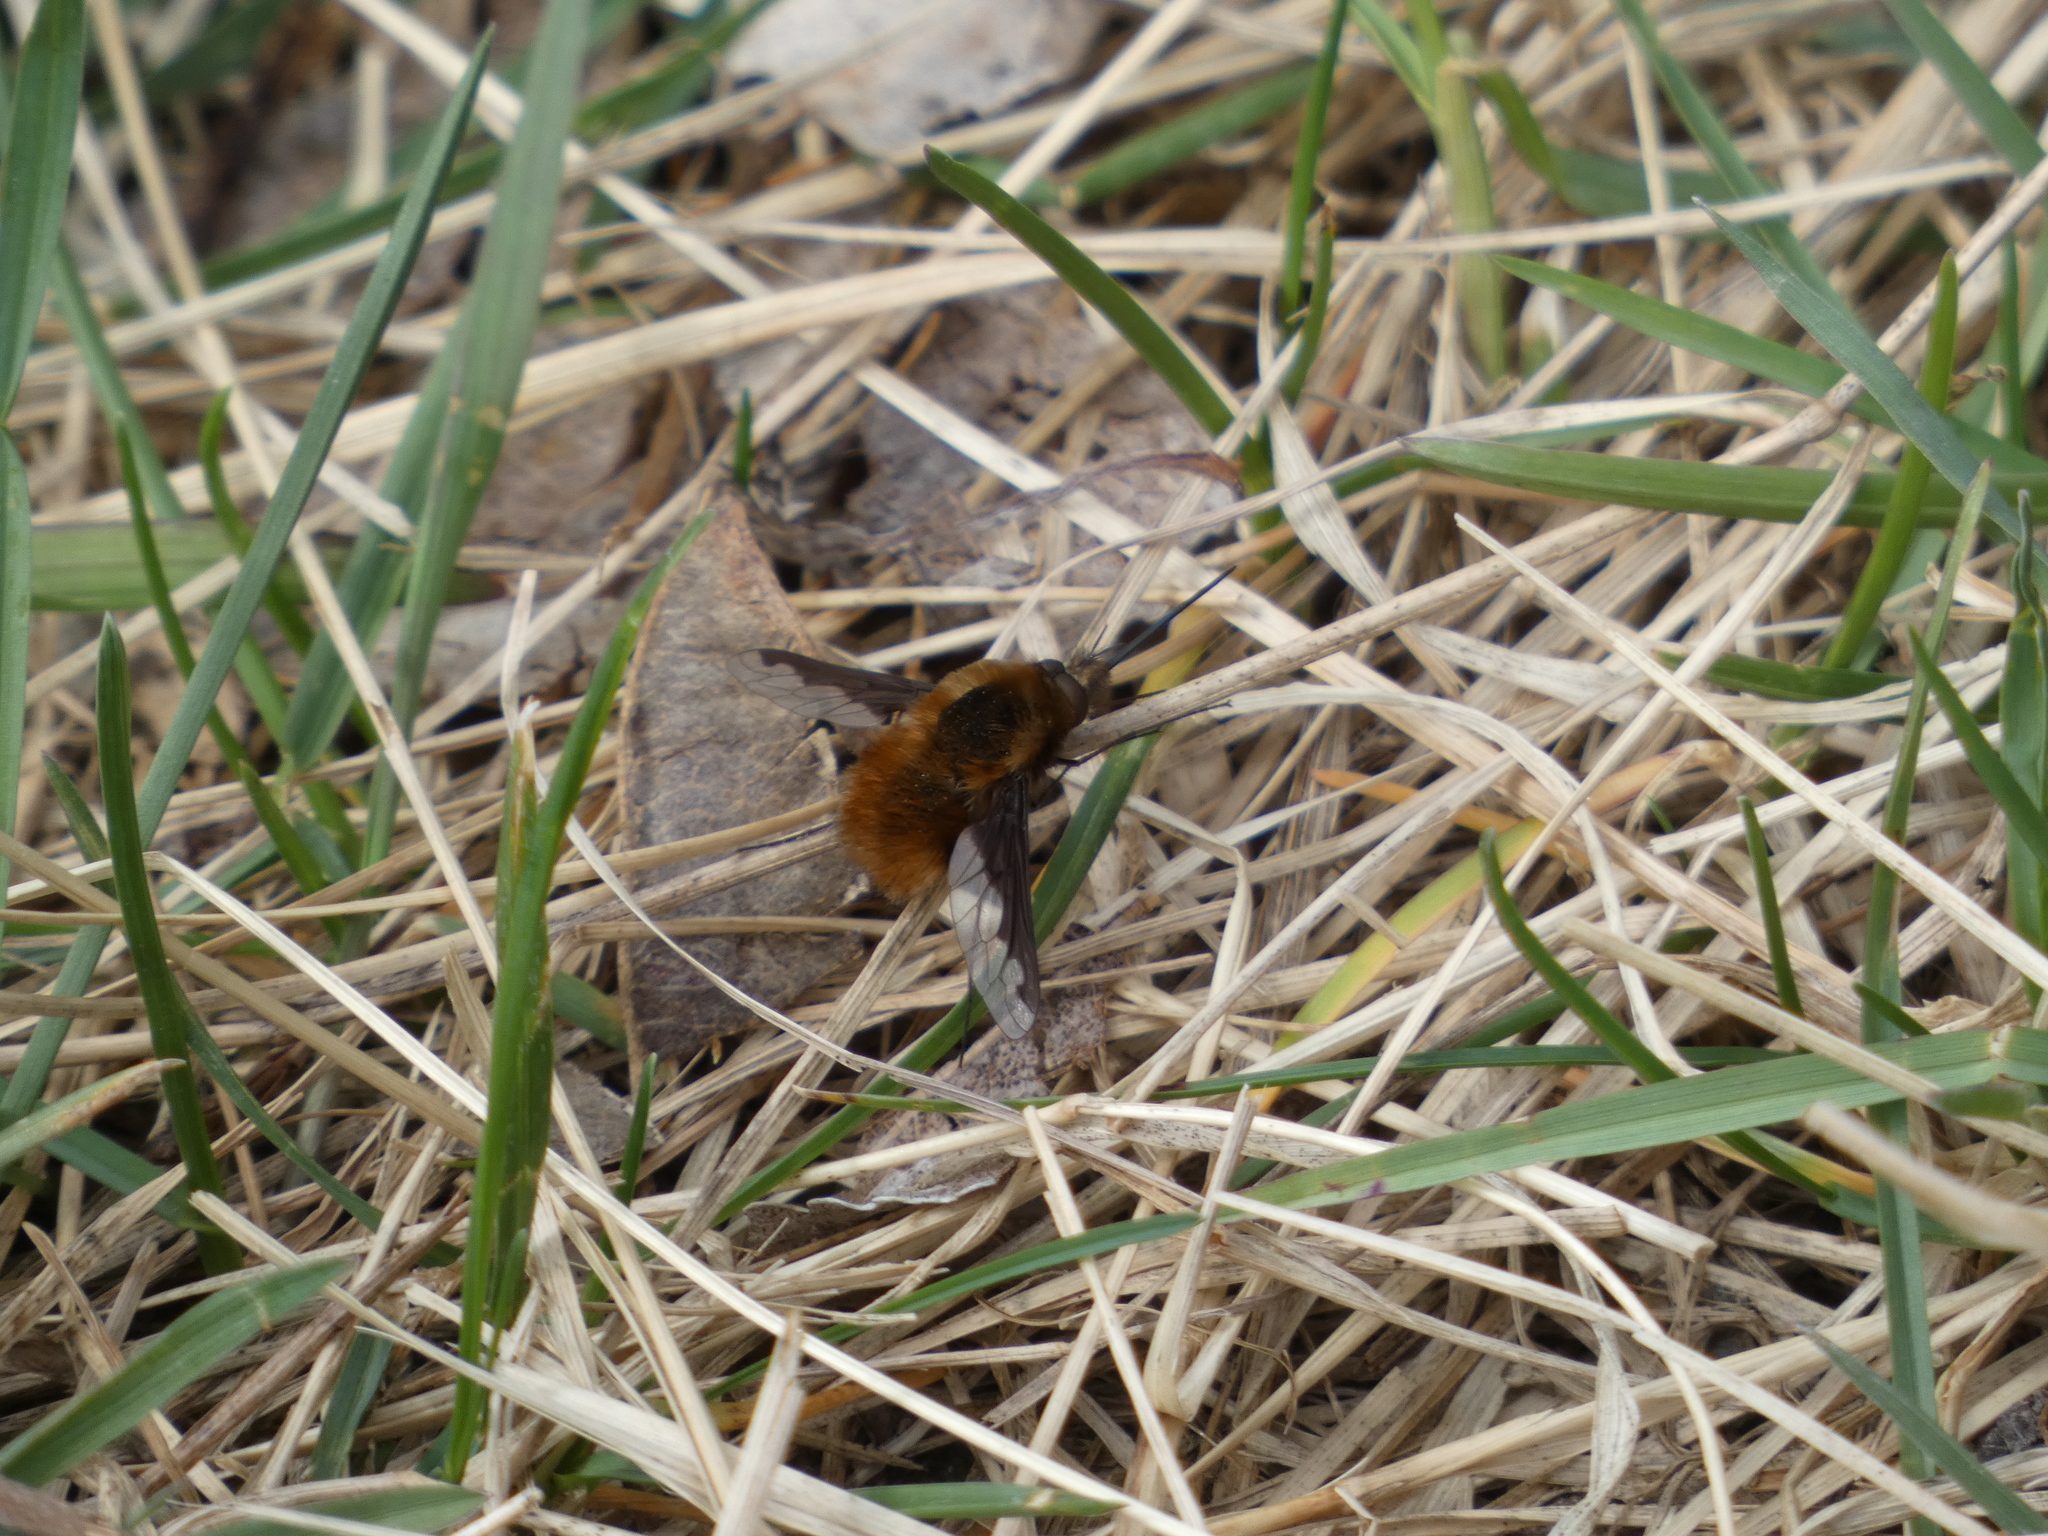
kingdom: Animalia
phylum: Arthropoda
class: Insecta
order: Diptera
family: Bombyliidae
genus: Bombylius
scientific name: Bombylius major
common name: Bee fly
